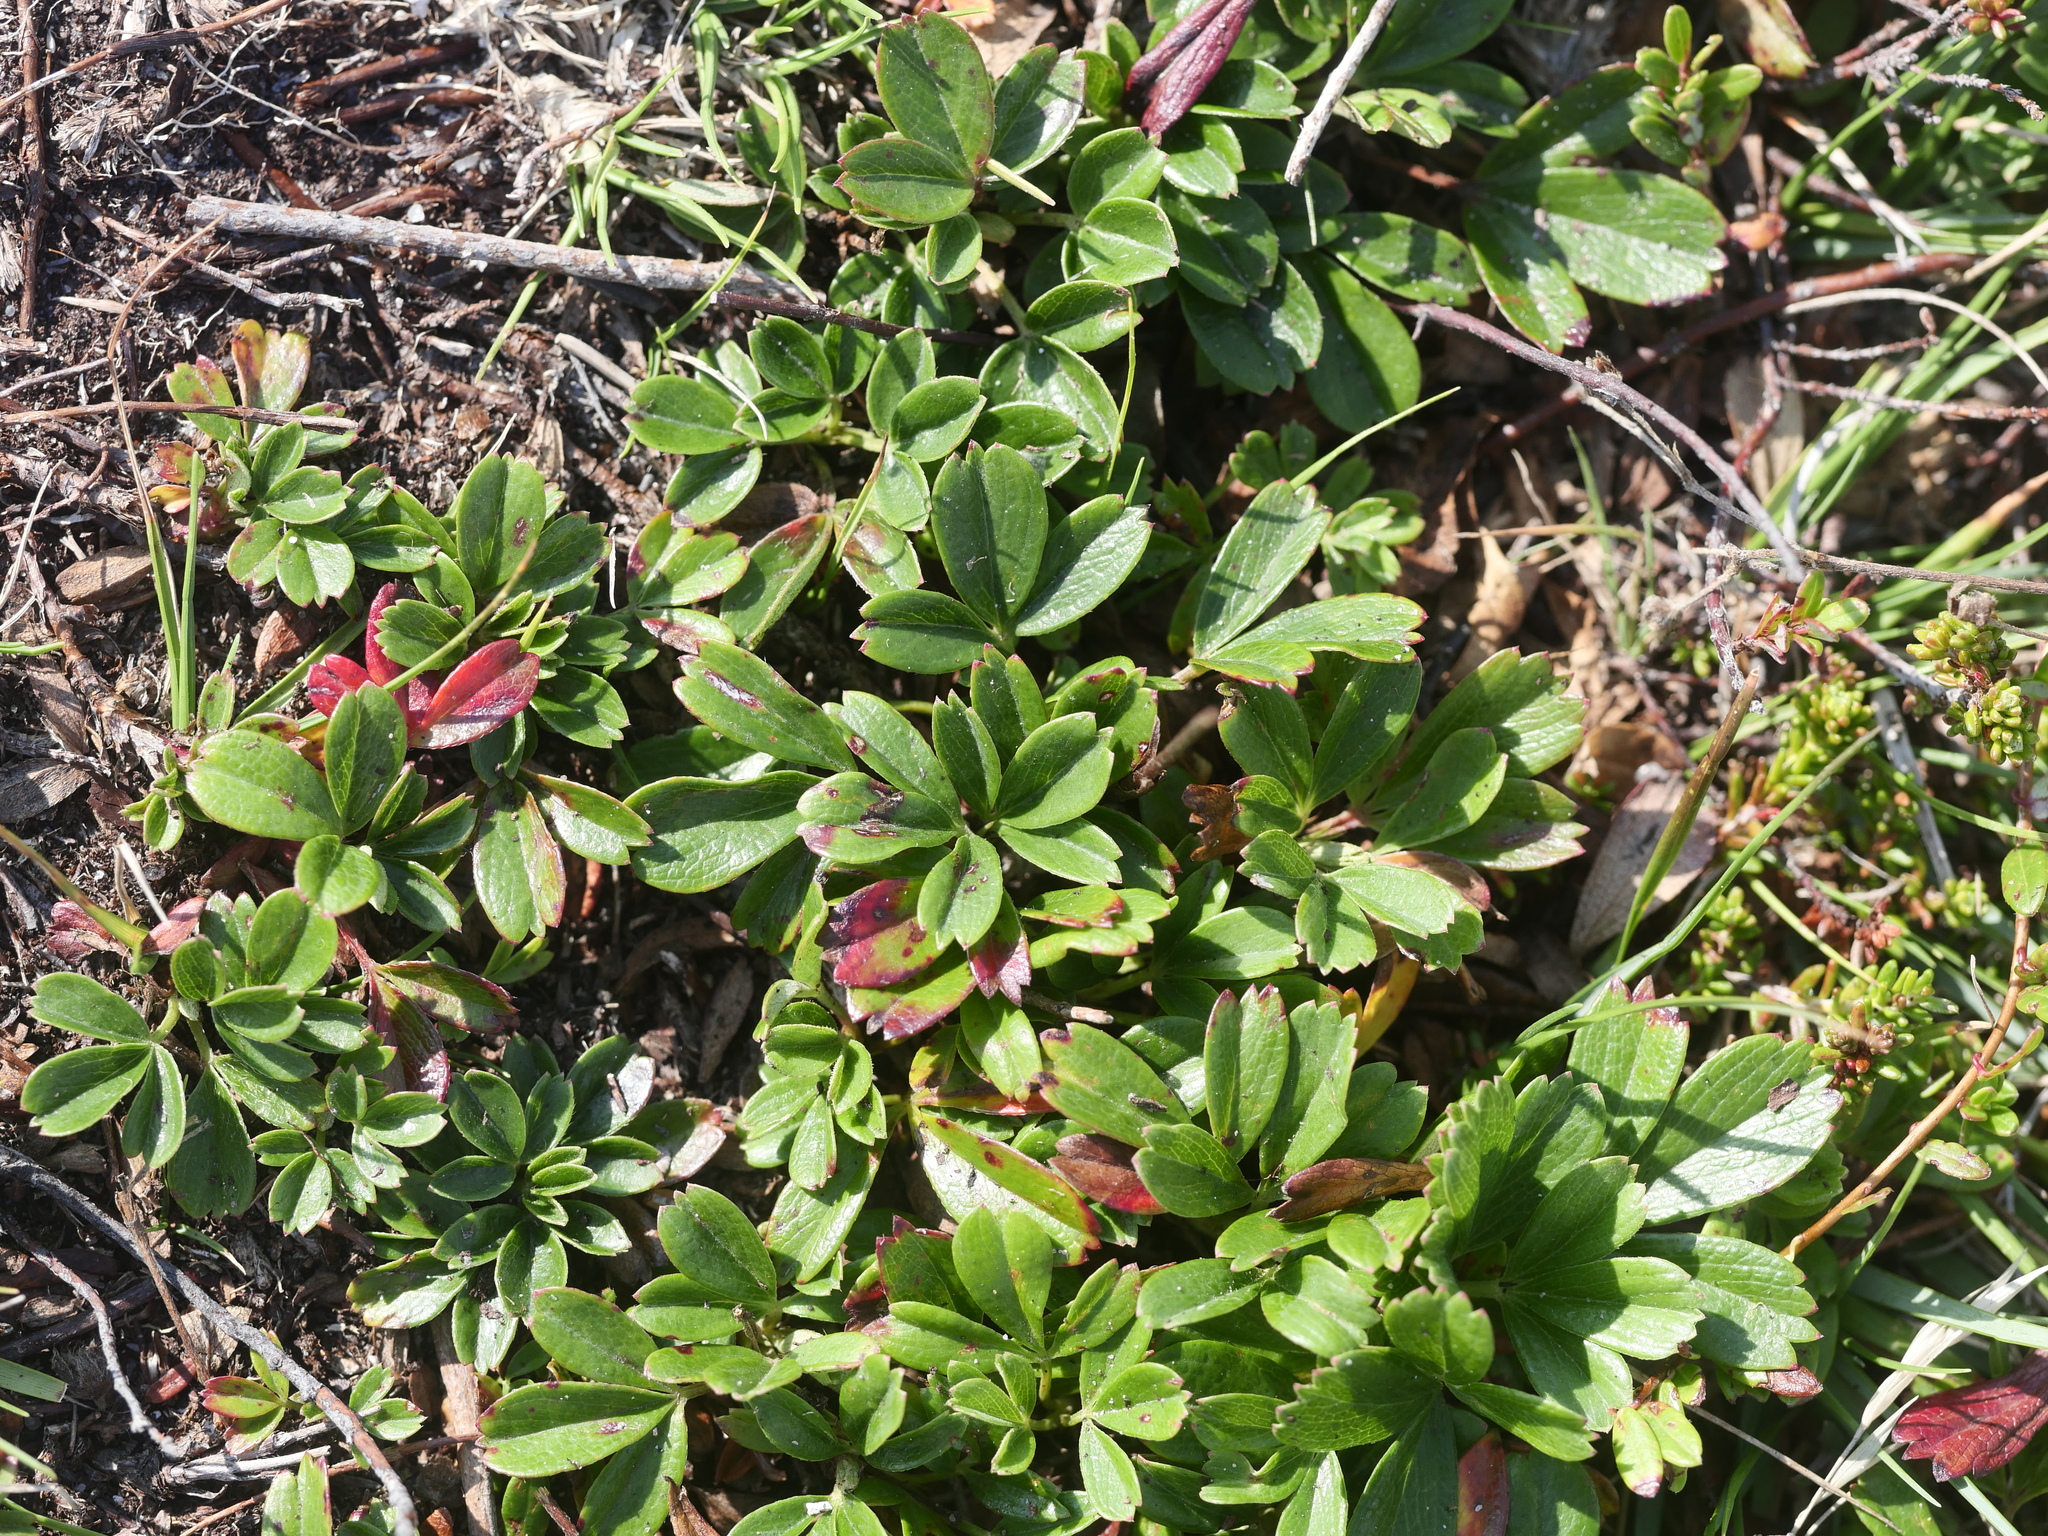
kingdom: Plantae
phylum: Tracheophyta
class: Magnoliopsida
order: Rosales
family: Rosaceae
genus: Sibbaldia
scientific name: Sibbaldia tridentata
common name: Three-toothed cinquefoil
